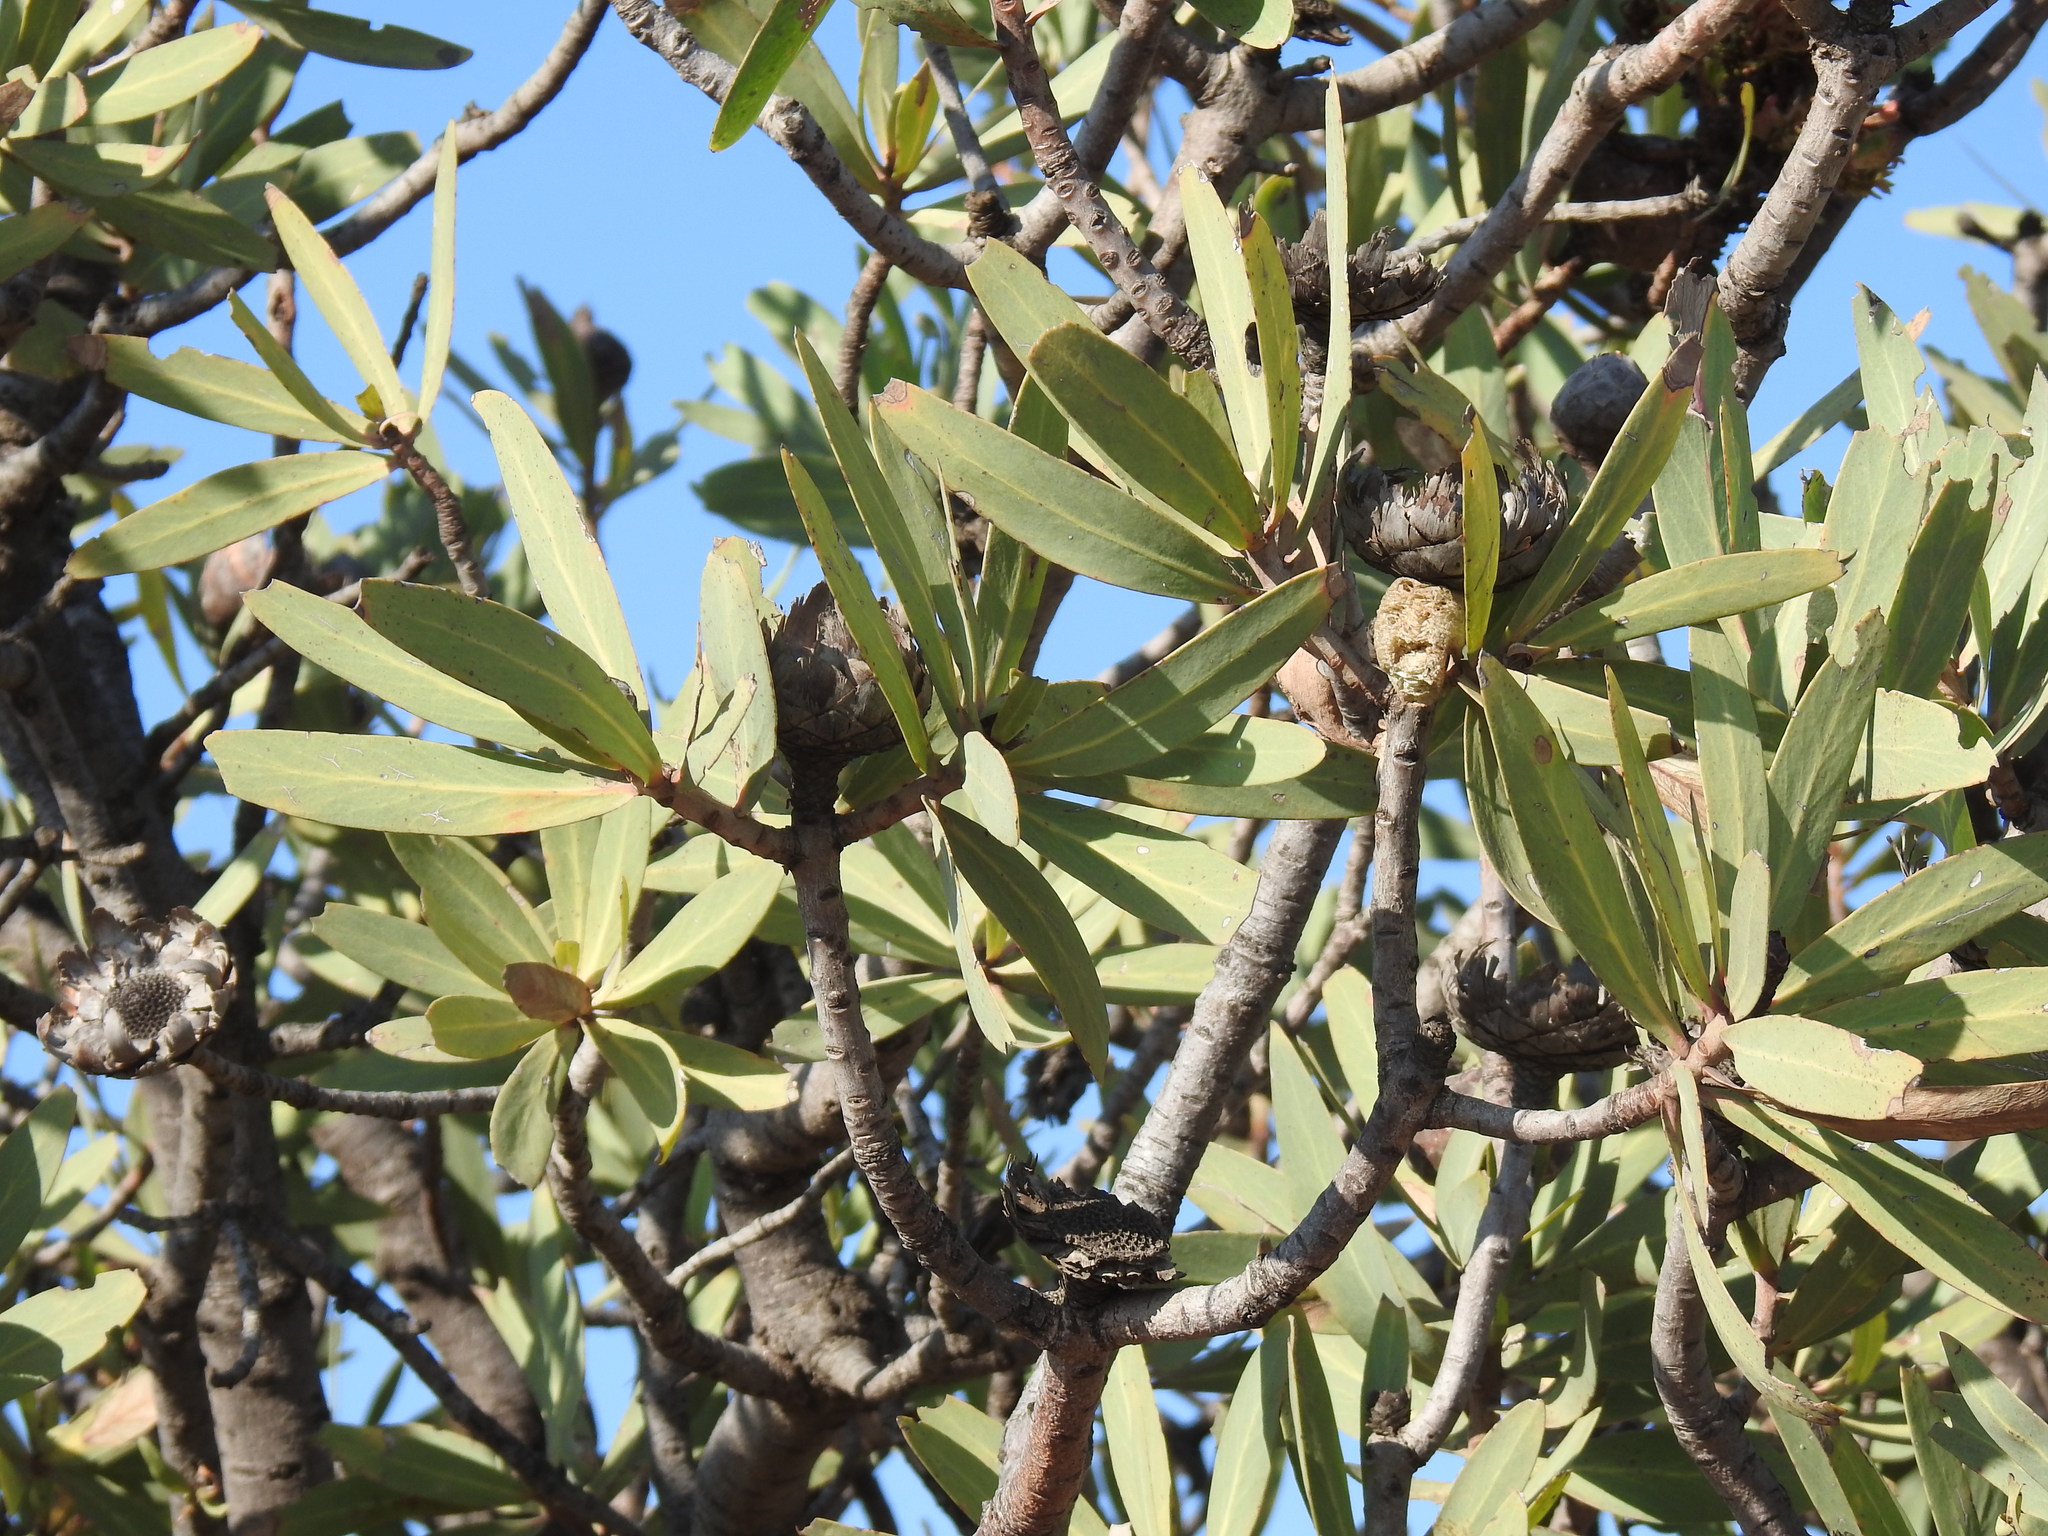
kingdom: Plantae
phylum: Tracheophyta
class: Magnoliopsida
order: Proteales
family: Proteaceae
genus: Protea
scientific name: Protea caffra
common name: Common sugarbush
